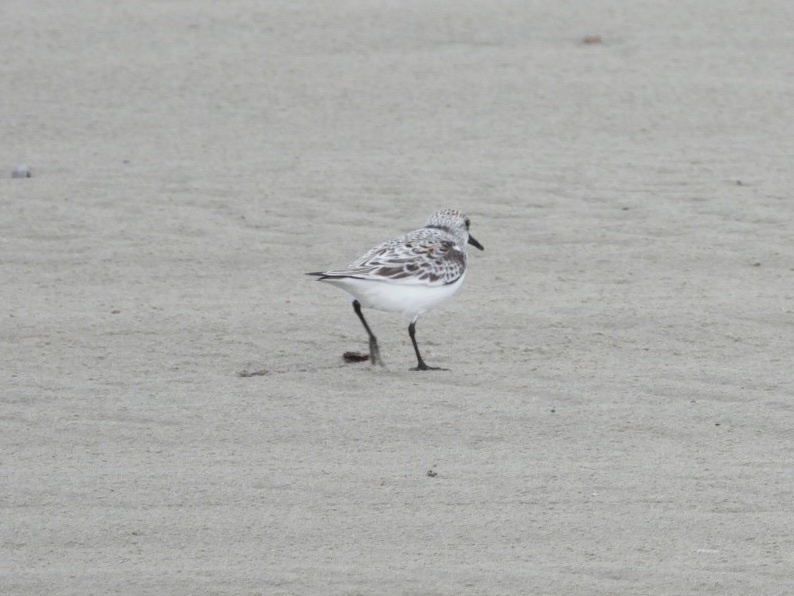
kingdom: Animalia
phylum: Chordata
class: Aves
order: Charadriiformes
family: Scolopacidae
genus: Calidris
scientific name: Calidris alba
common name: Sanderling
